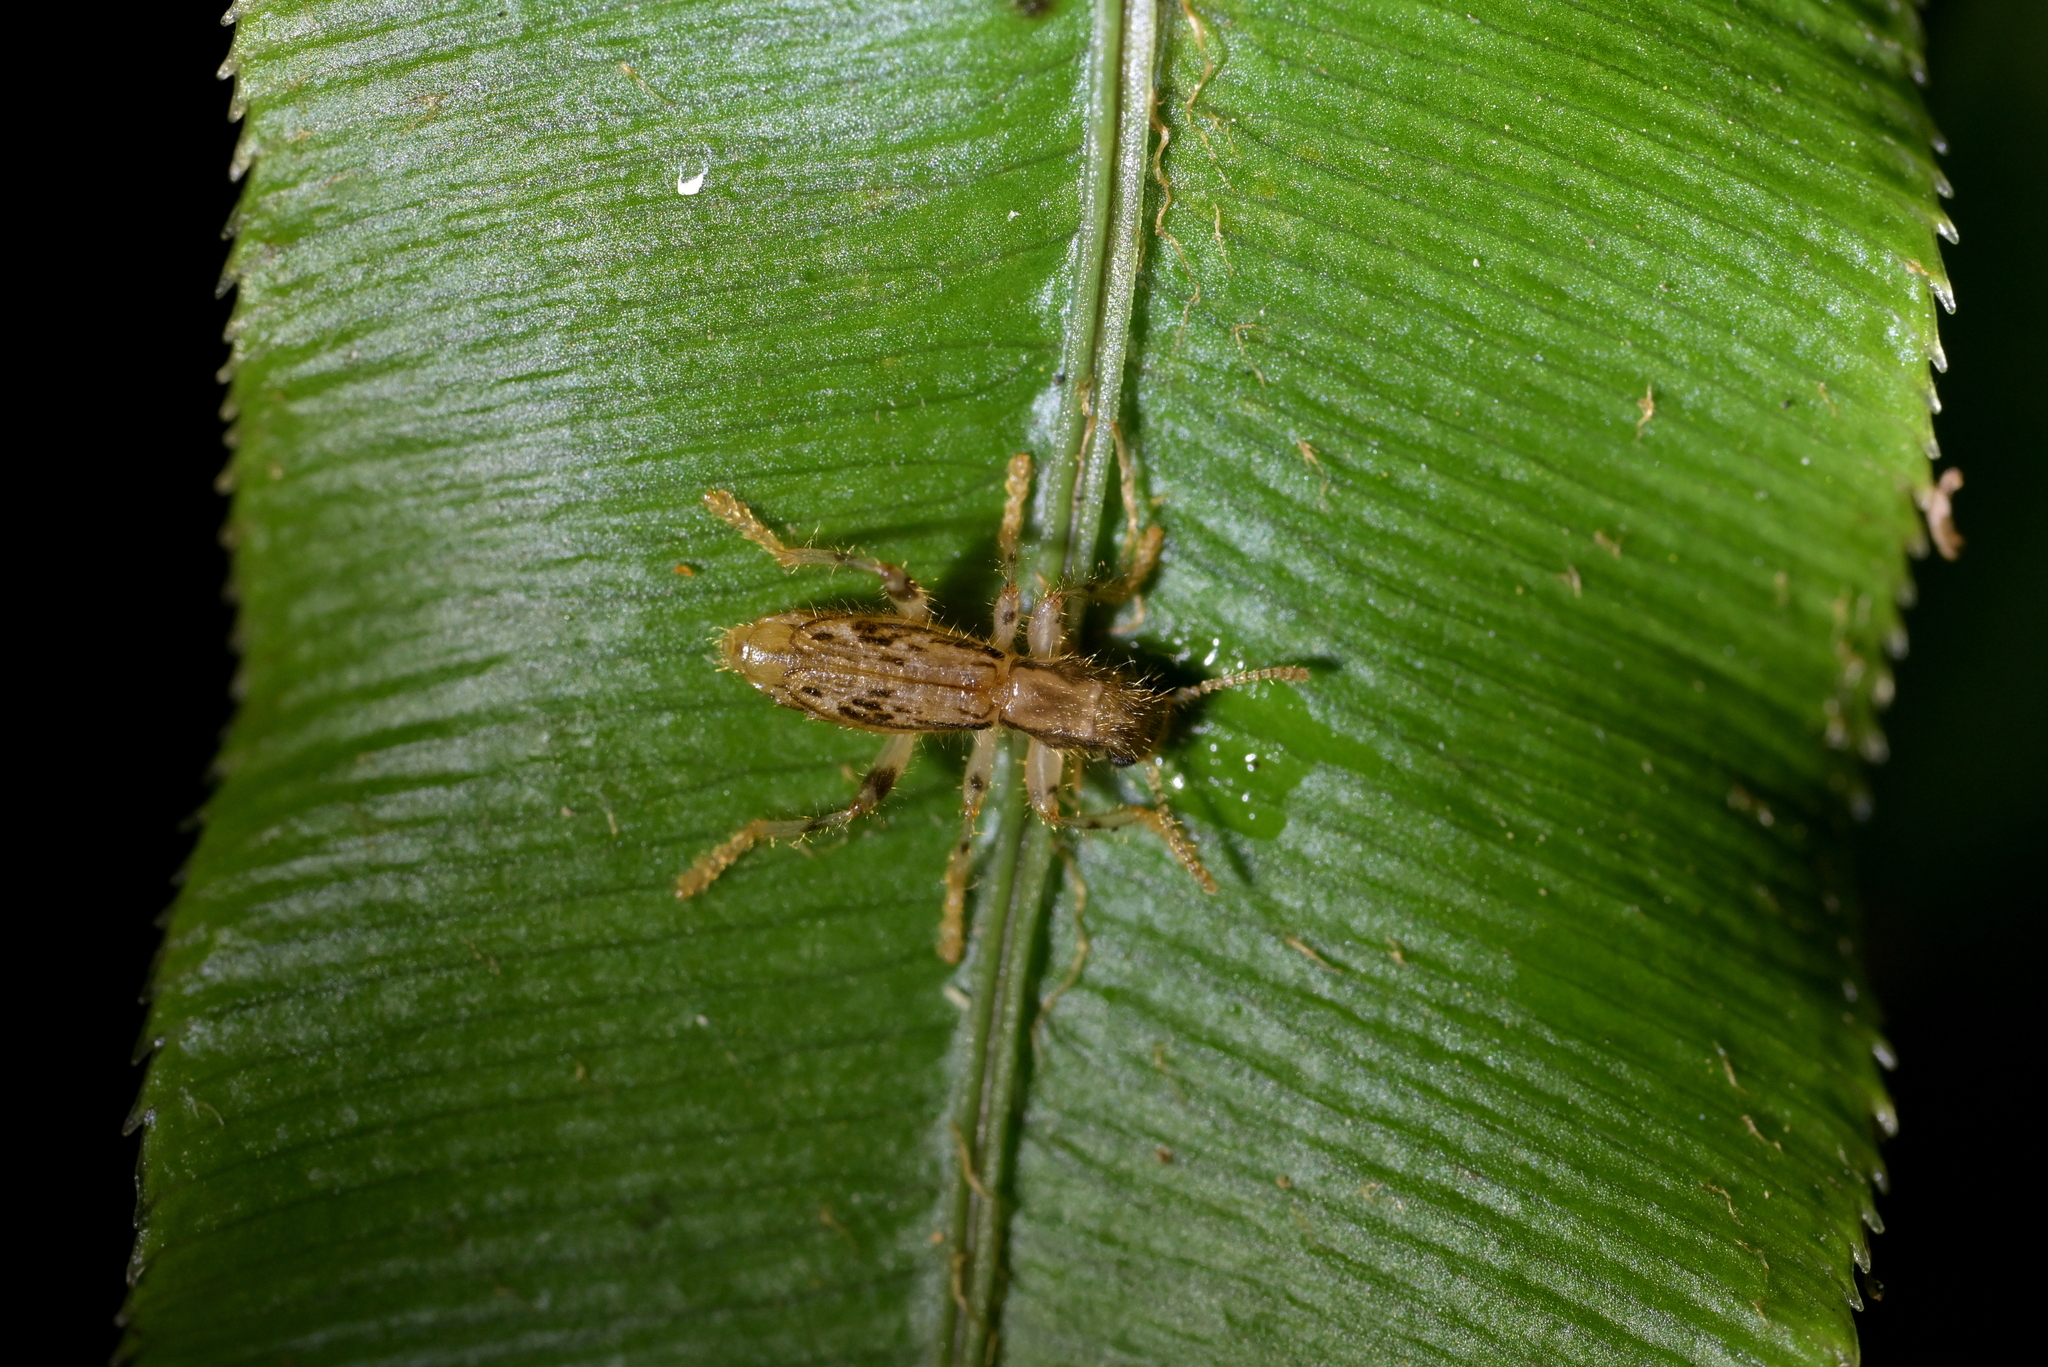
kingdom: Animalia
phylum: Arthropoda
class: Insecta
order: Coleoptera
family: Cleridae
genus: Lemidia
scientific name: Lemidia
